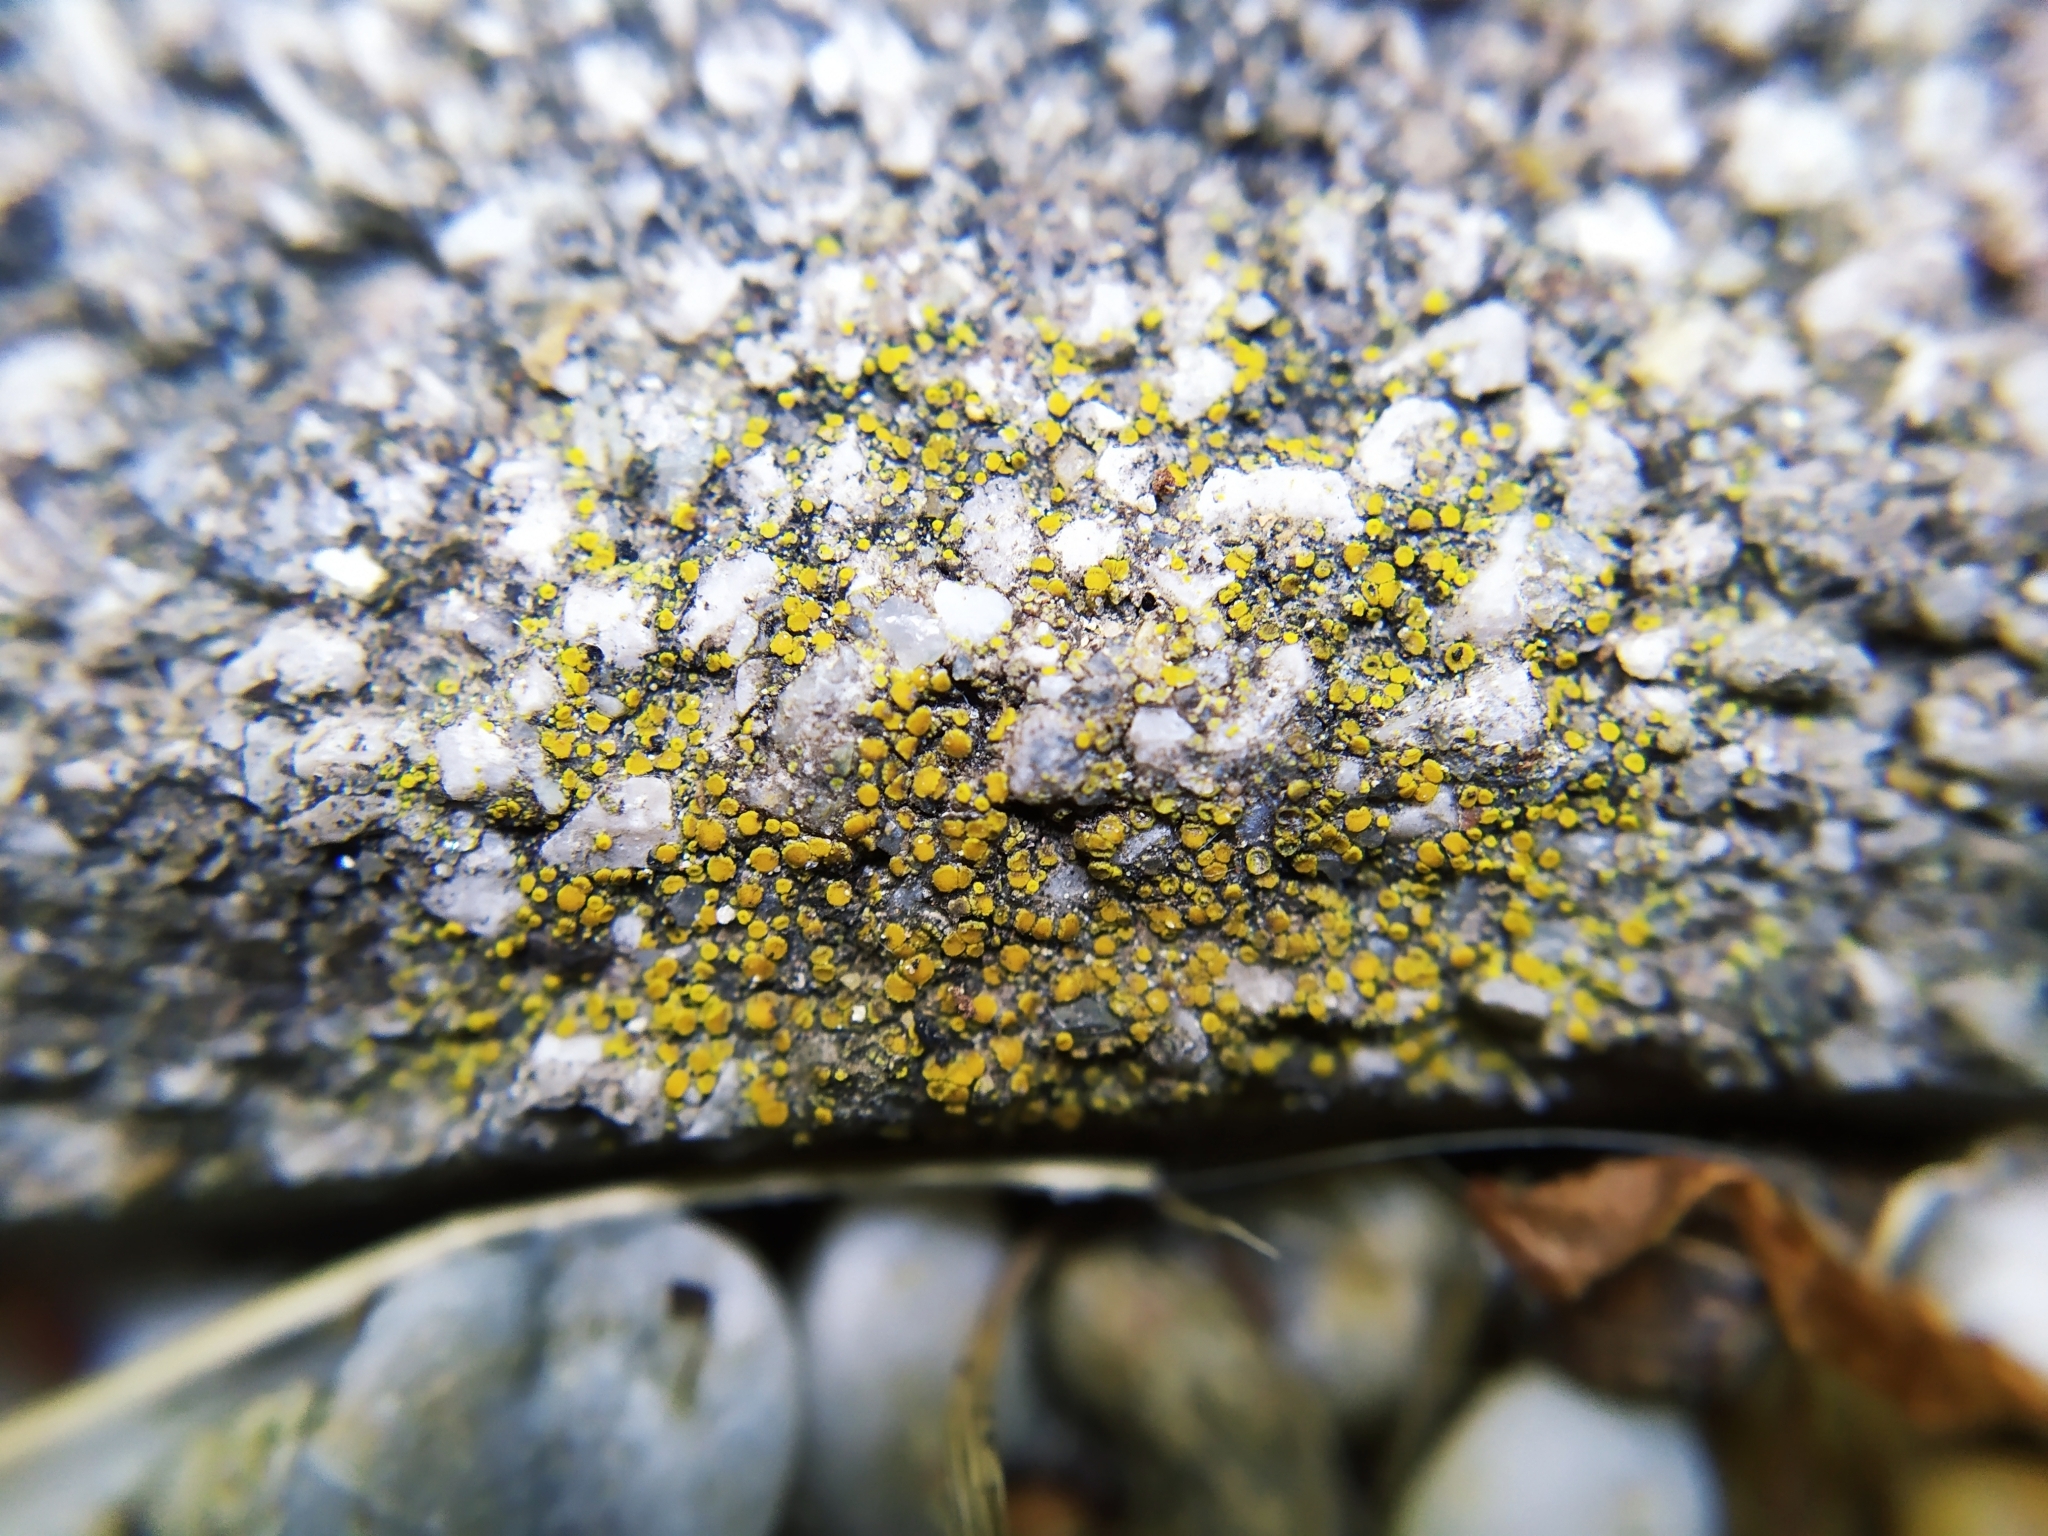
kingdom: Fungi
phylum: Ascomycota
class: Candelariomycetes
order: Candelariales
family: Candelariaceae
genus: Candelariella
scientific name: Candelariella aurella
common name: Hidden goldspeck lichen
